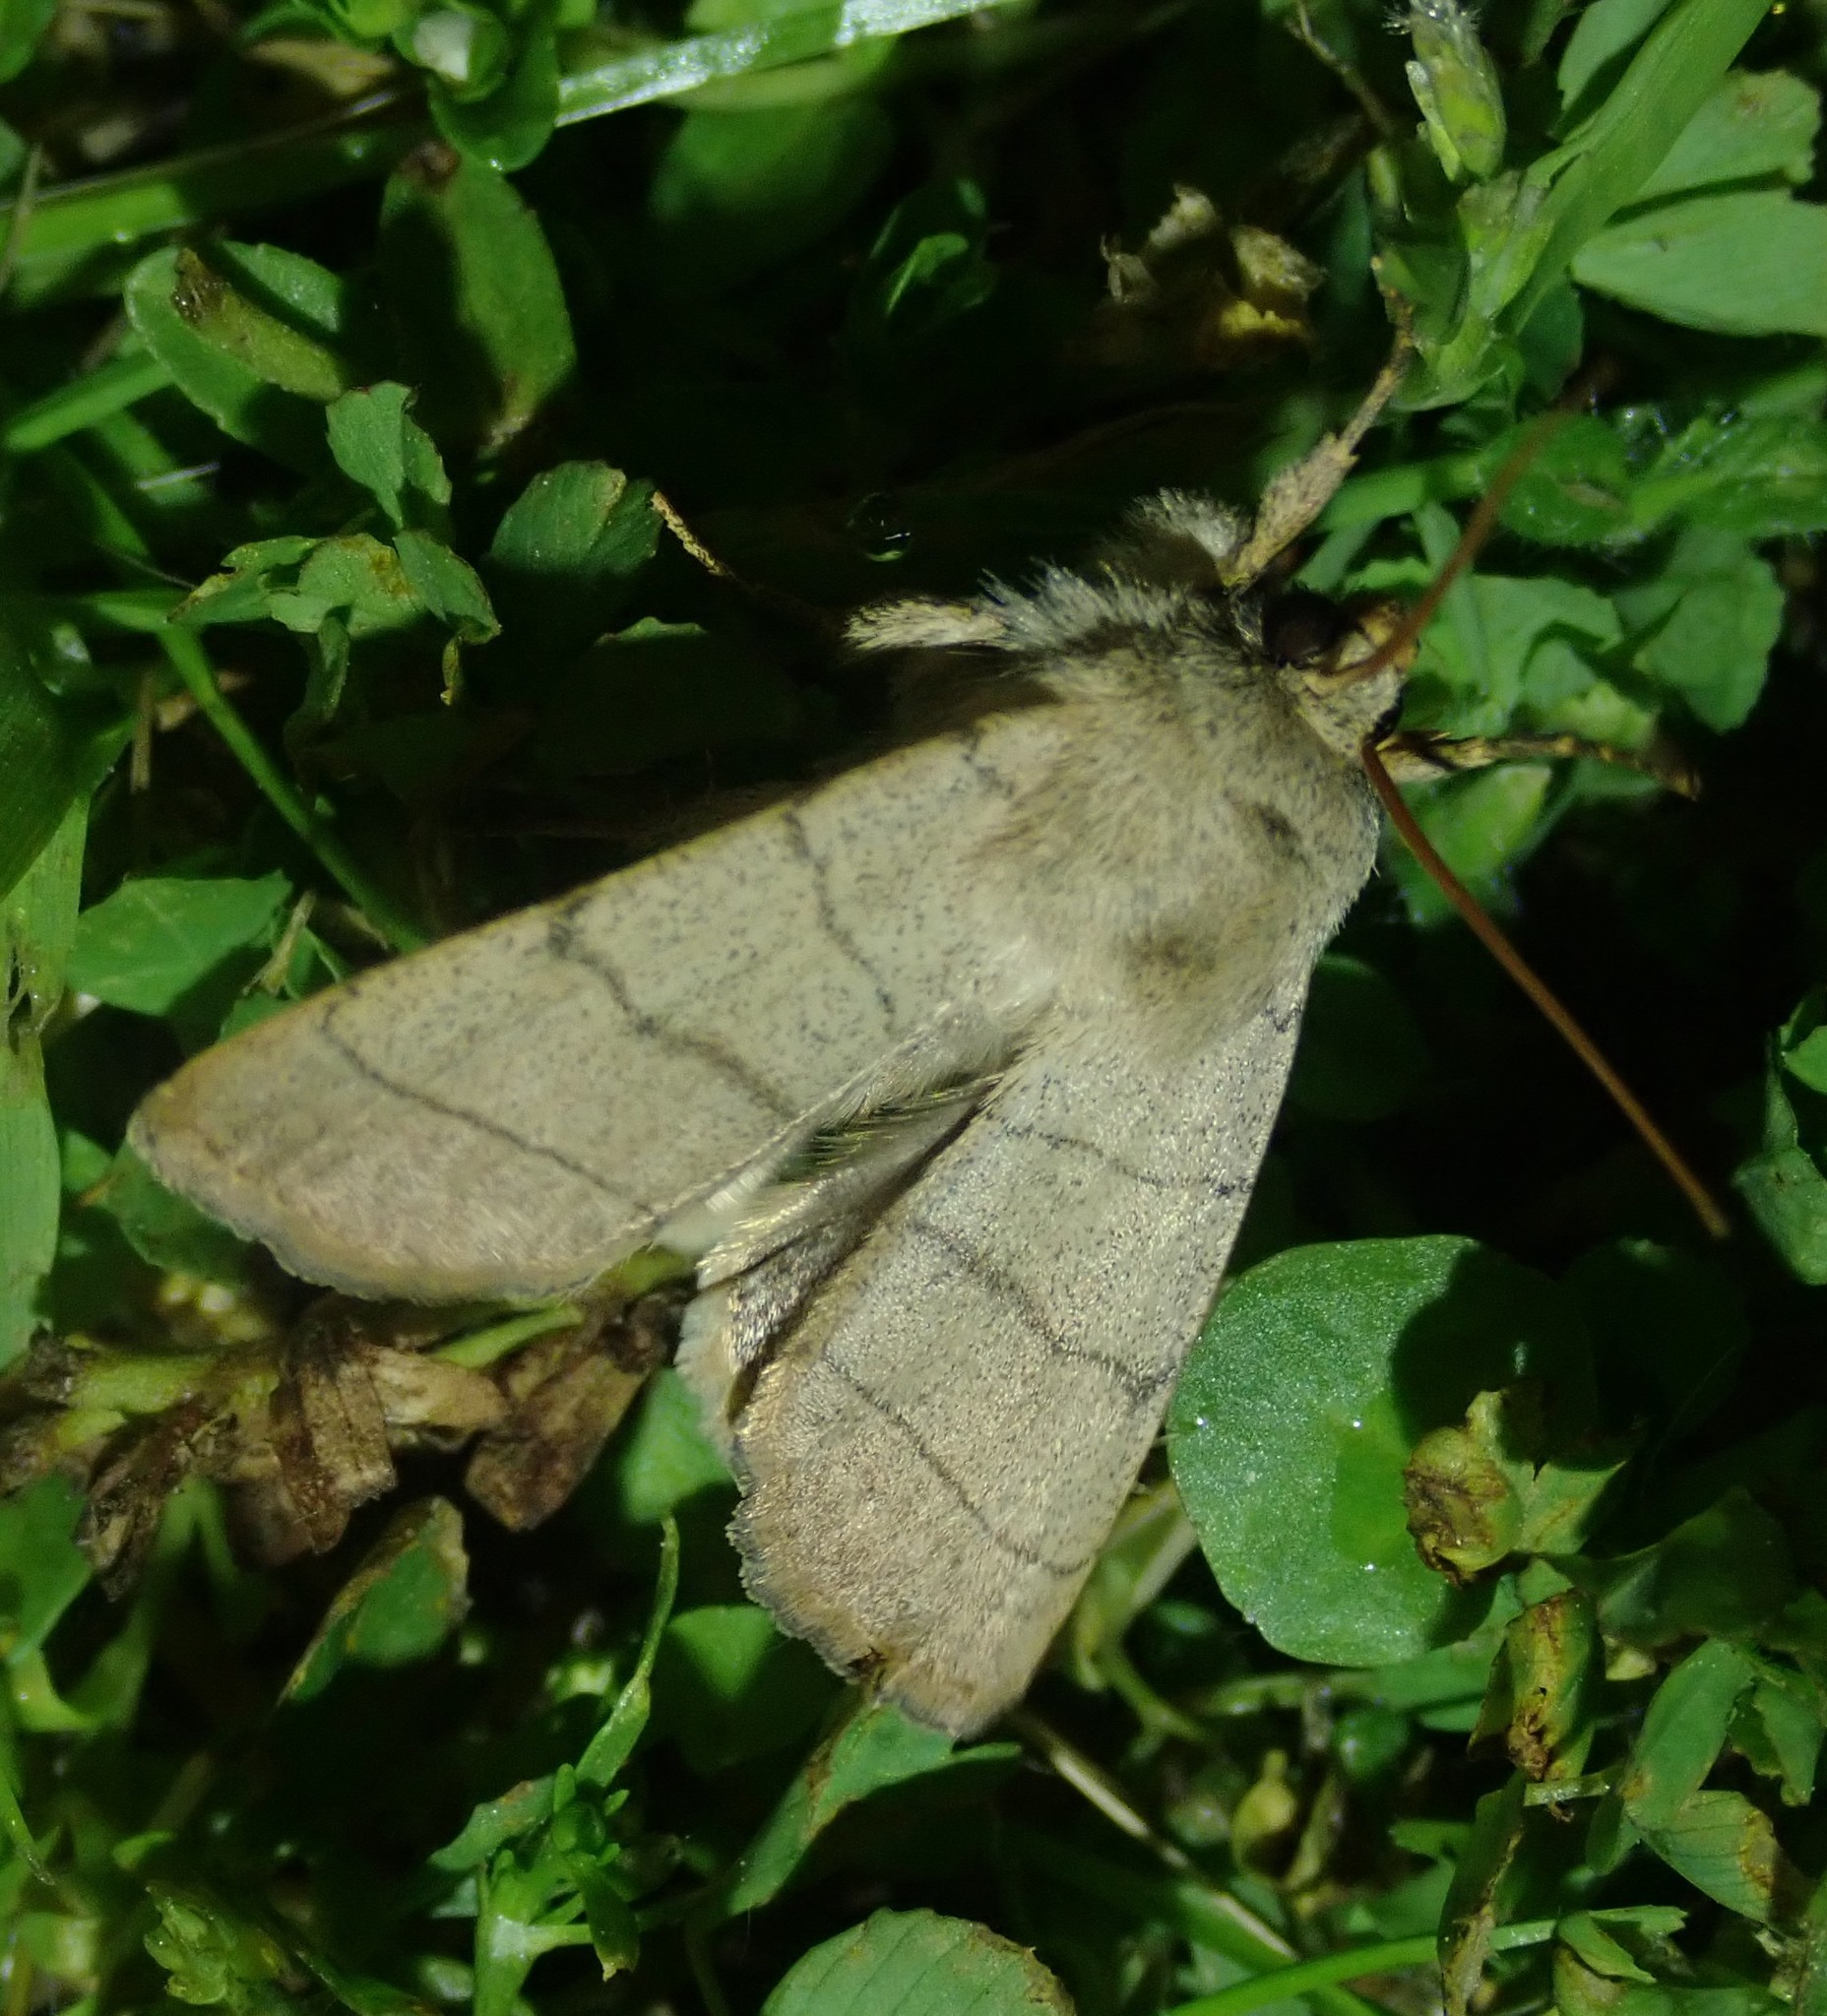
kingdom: Animalia
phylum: Arthropoda
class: Insecta
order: Lepidoptera
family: Noctuidae
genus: Charanyca
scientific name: Charanyca trigrammica
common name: Treble lines
